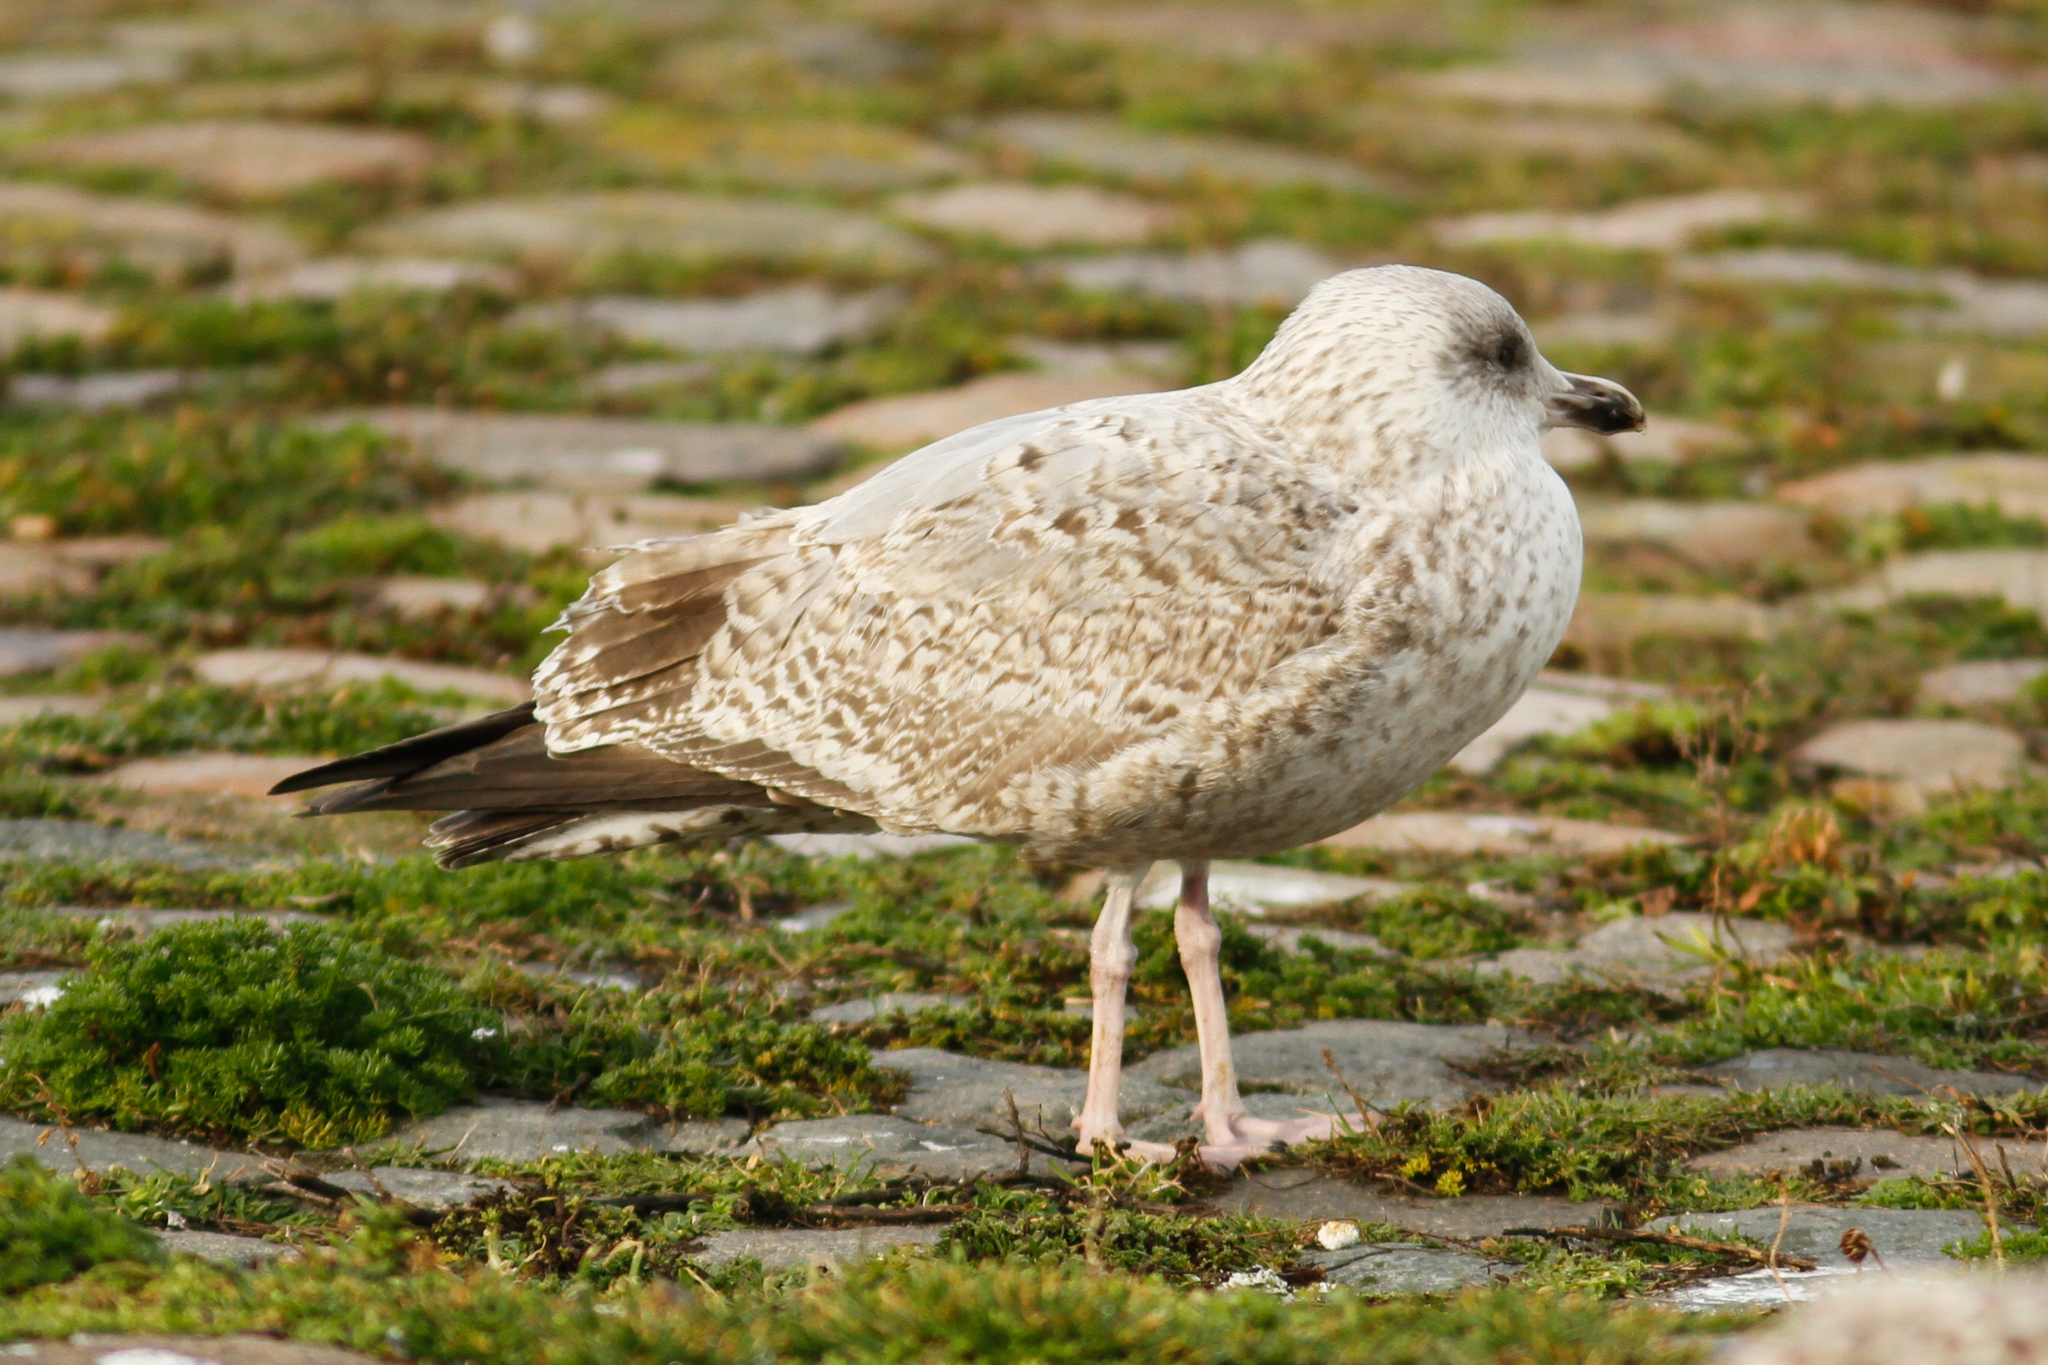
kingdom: Animalia
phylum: Chordata
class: Aves
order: Charadriiformes
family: Laridae
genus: Larus
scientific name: Larus argentatus
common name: Herring gull
